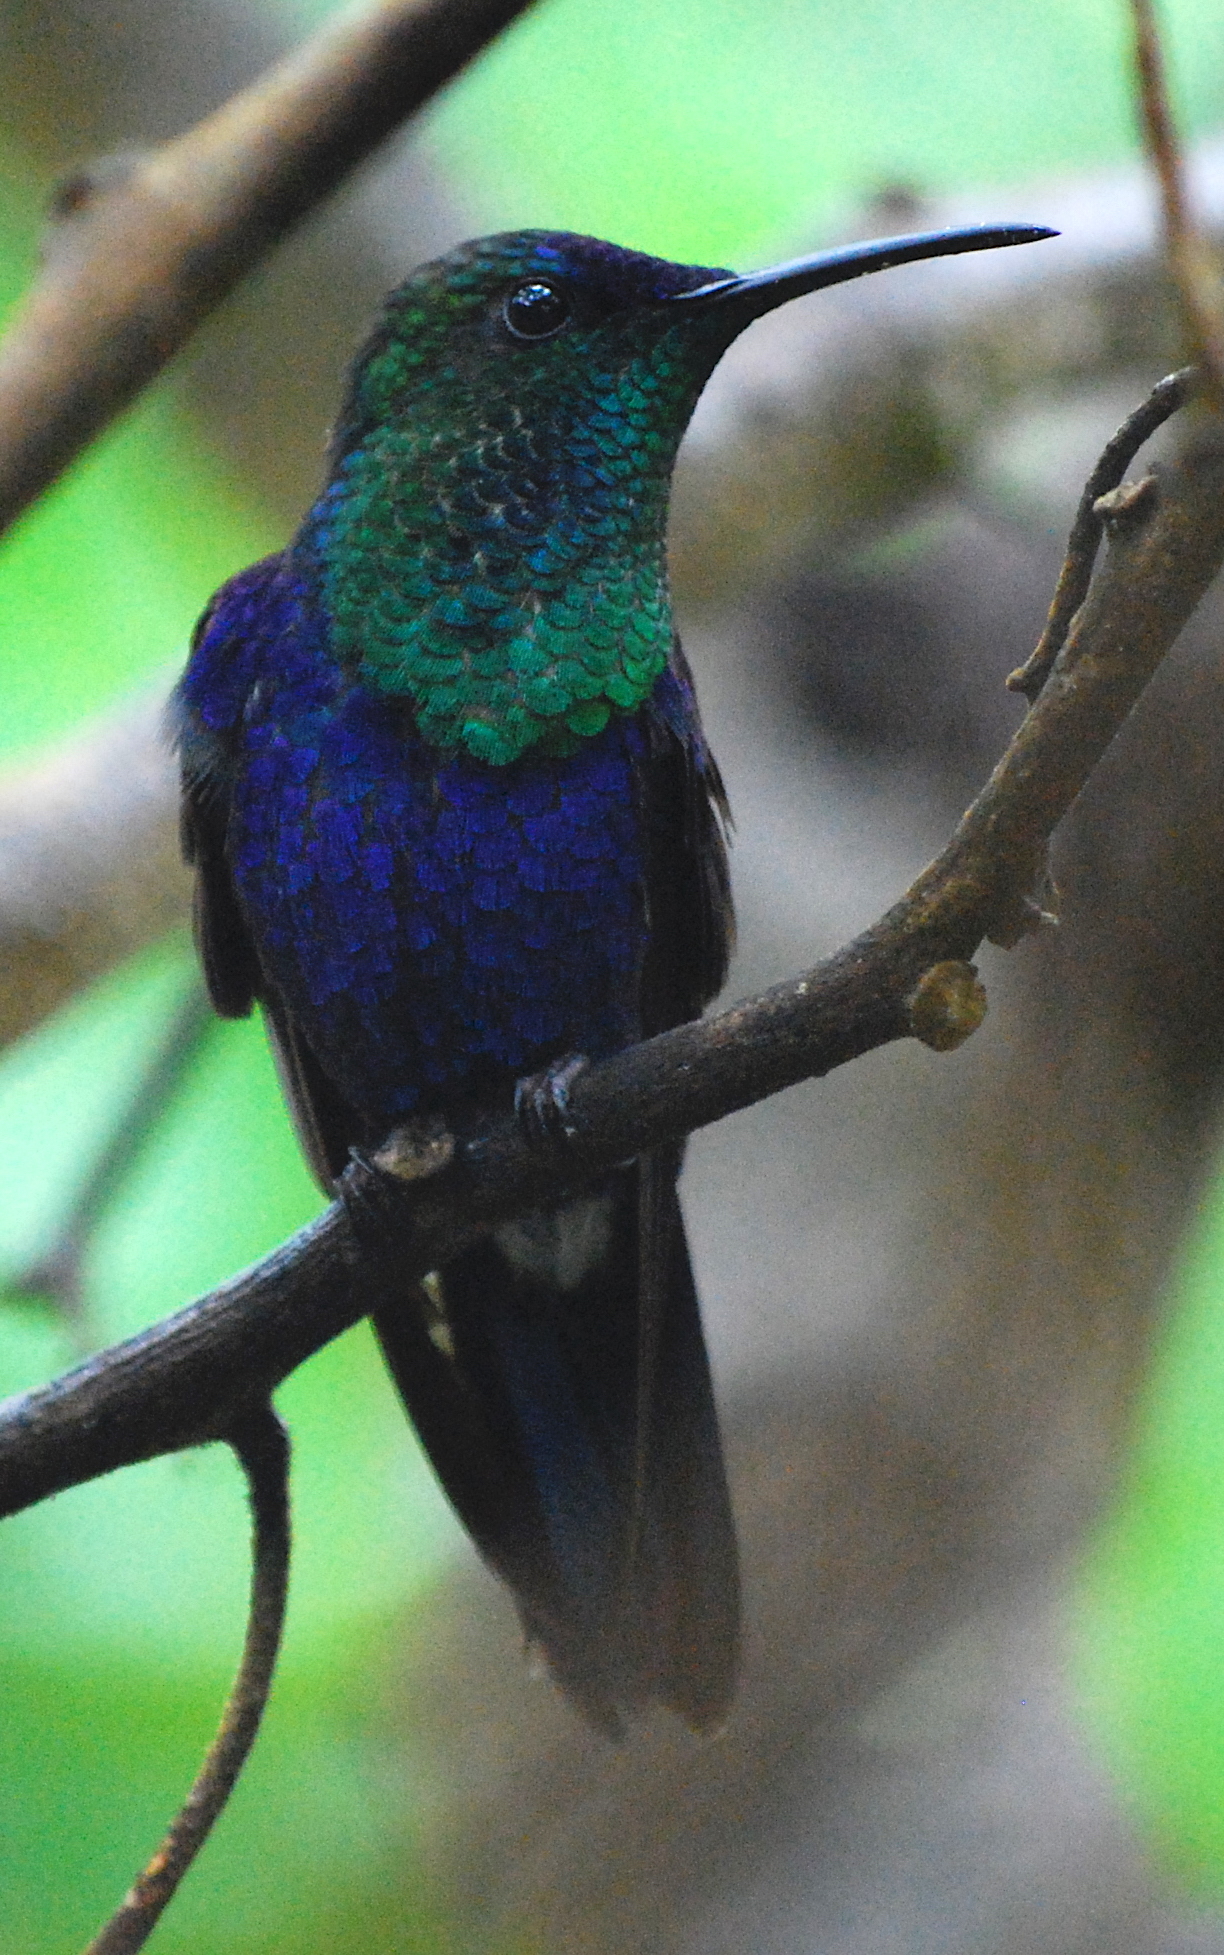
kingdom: Animalia
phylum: Chordata
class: Aves
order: Apodiformes
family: Trochilidae
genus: Thalurania
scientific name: Thalurania colombica
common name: Crowned woodnymph
